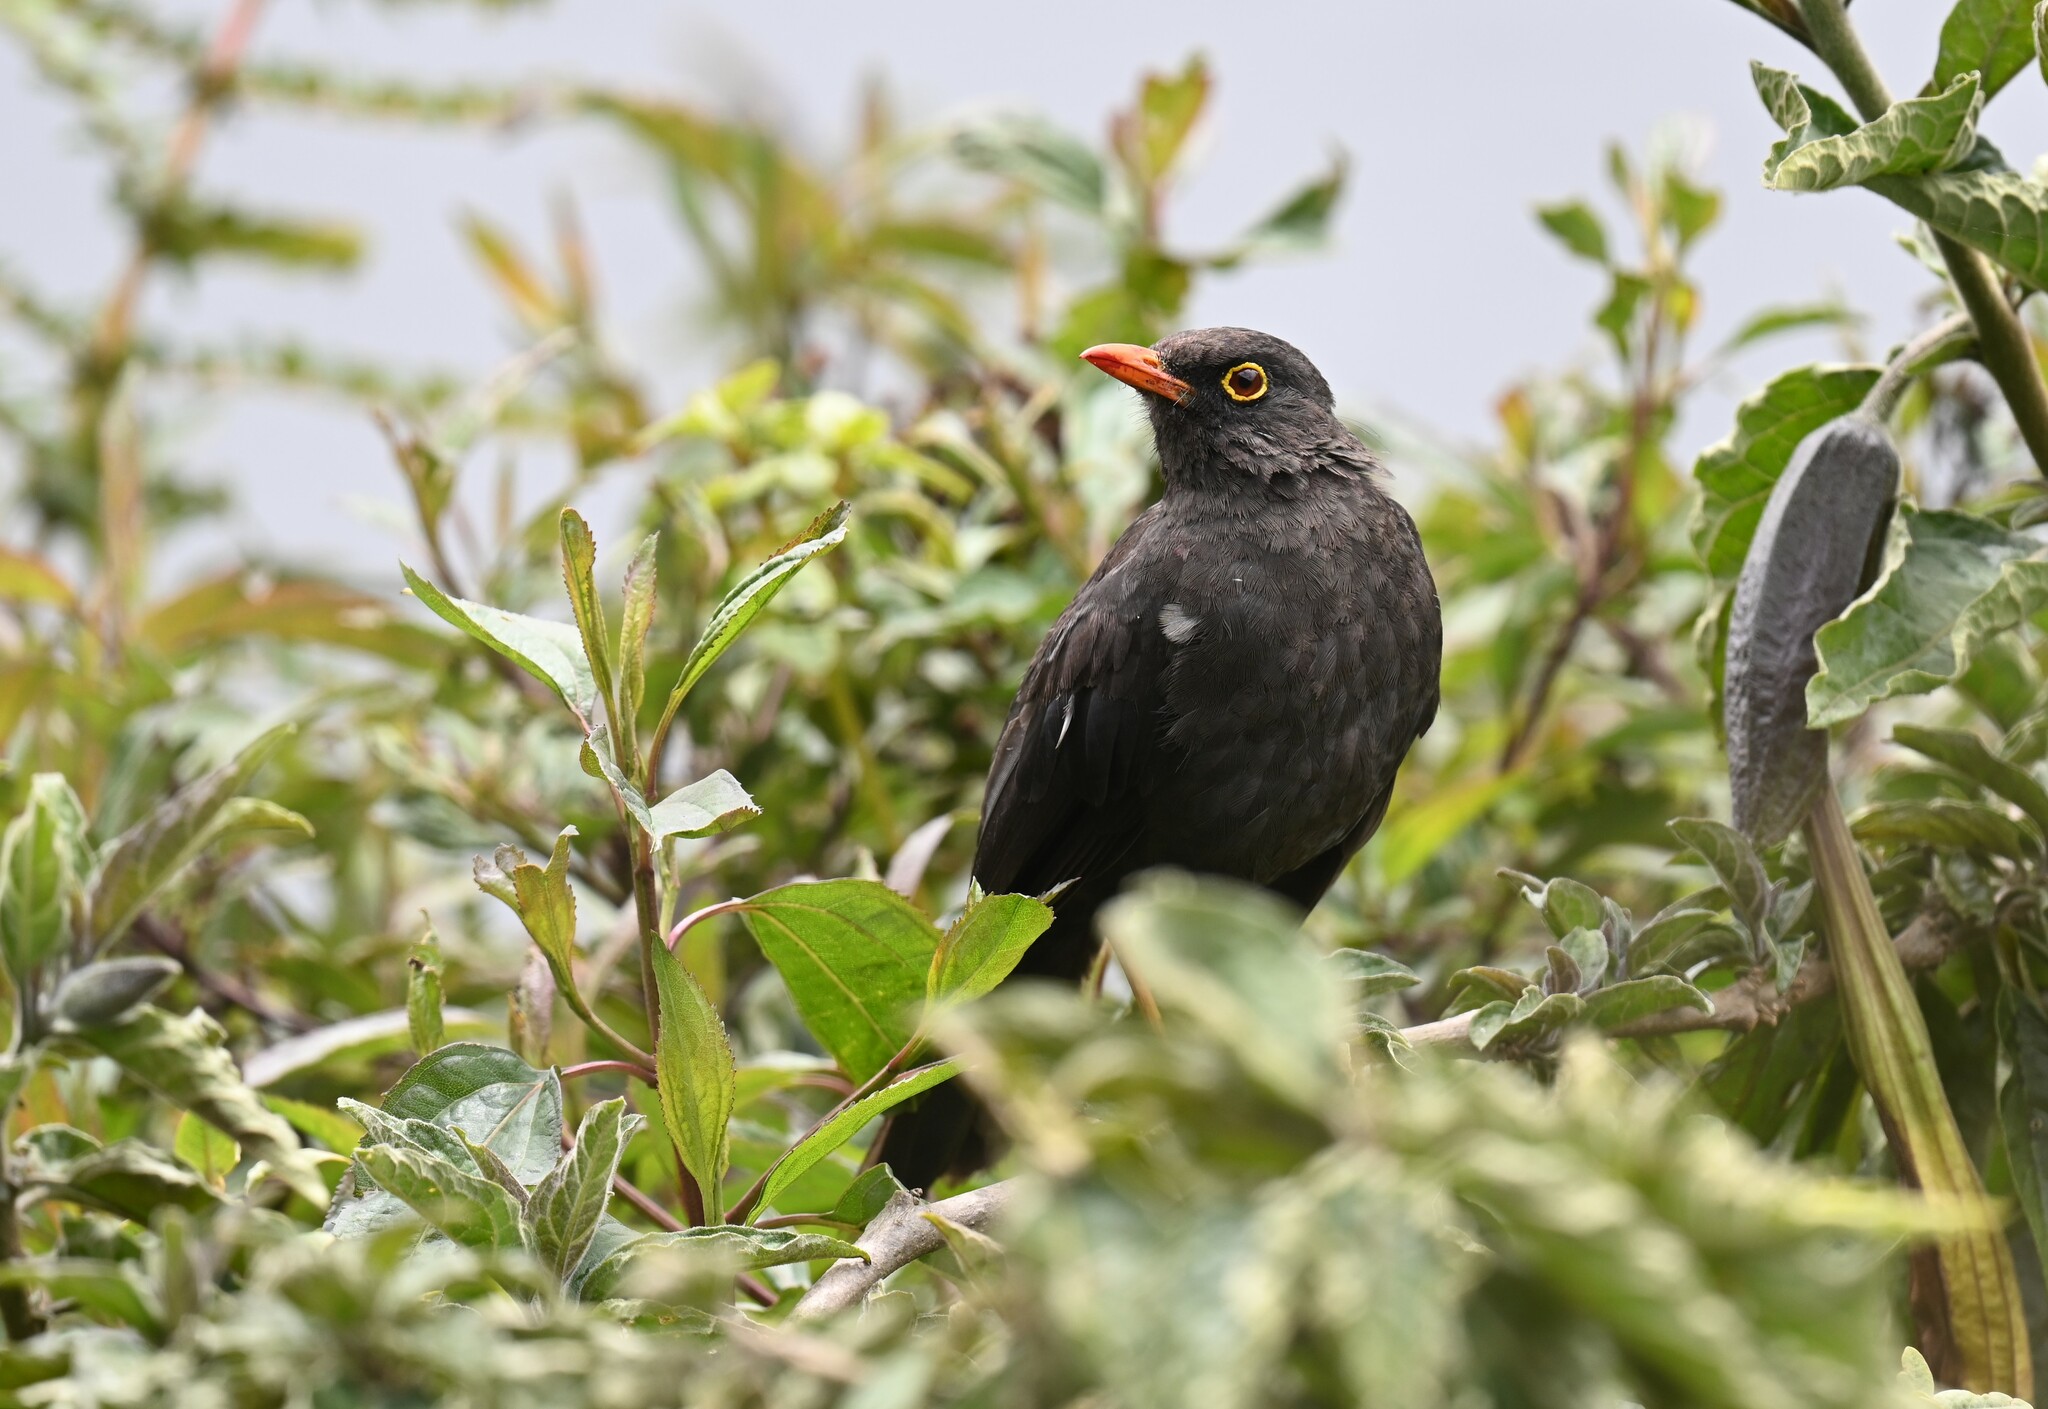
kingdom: Animalia
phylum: Chordata
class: Aves
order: Passeriformes
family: Turdidae
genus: Turdus
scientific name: Turdus fuscater
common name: Great thrush
